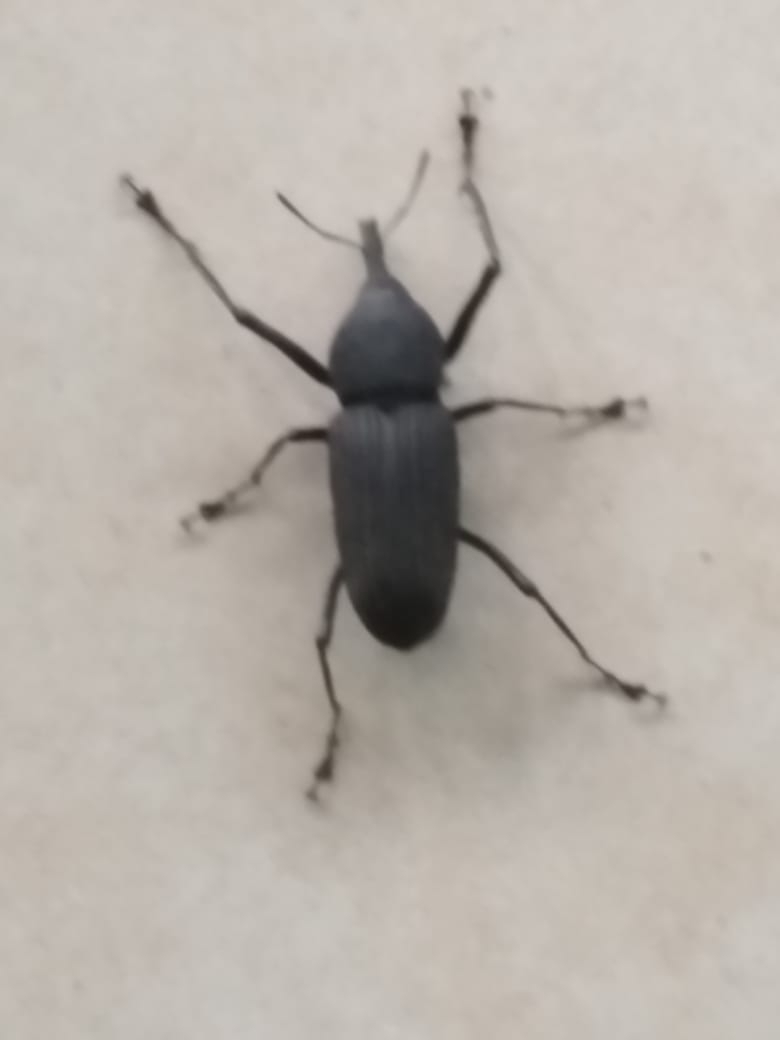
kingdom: Animalia
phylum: Arthropoda
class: Insecta
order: Coleoptera
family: Dryophthoridae
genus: Rhinostomus
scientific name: Rhinostomus barbirostris
